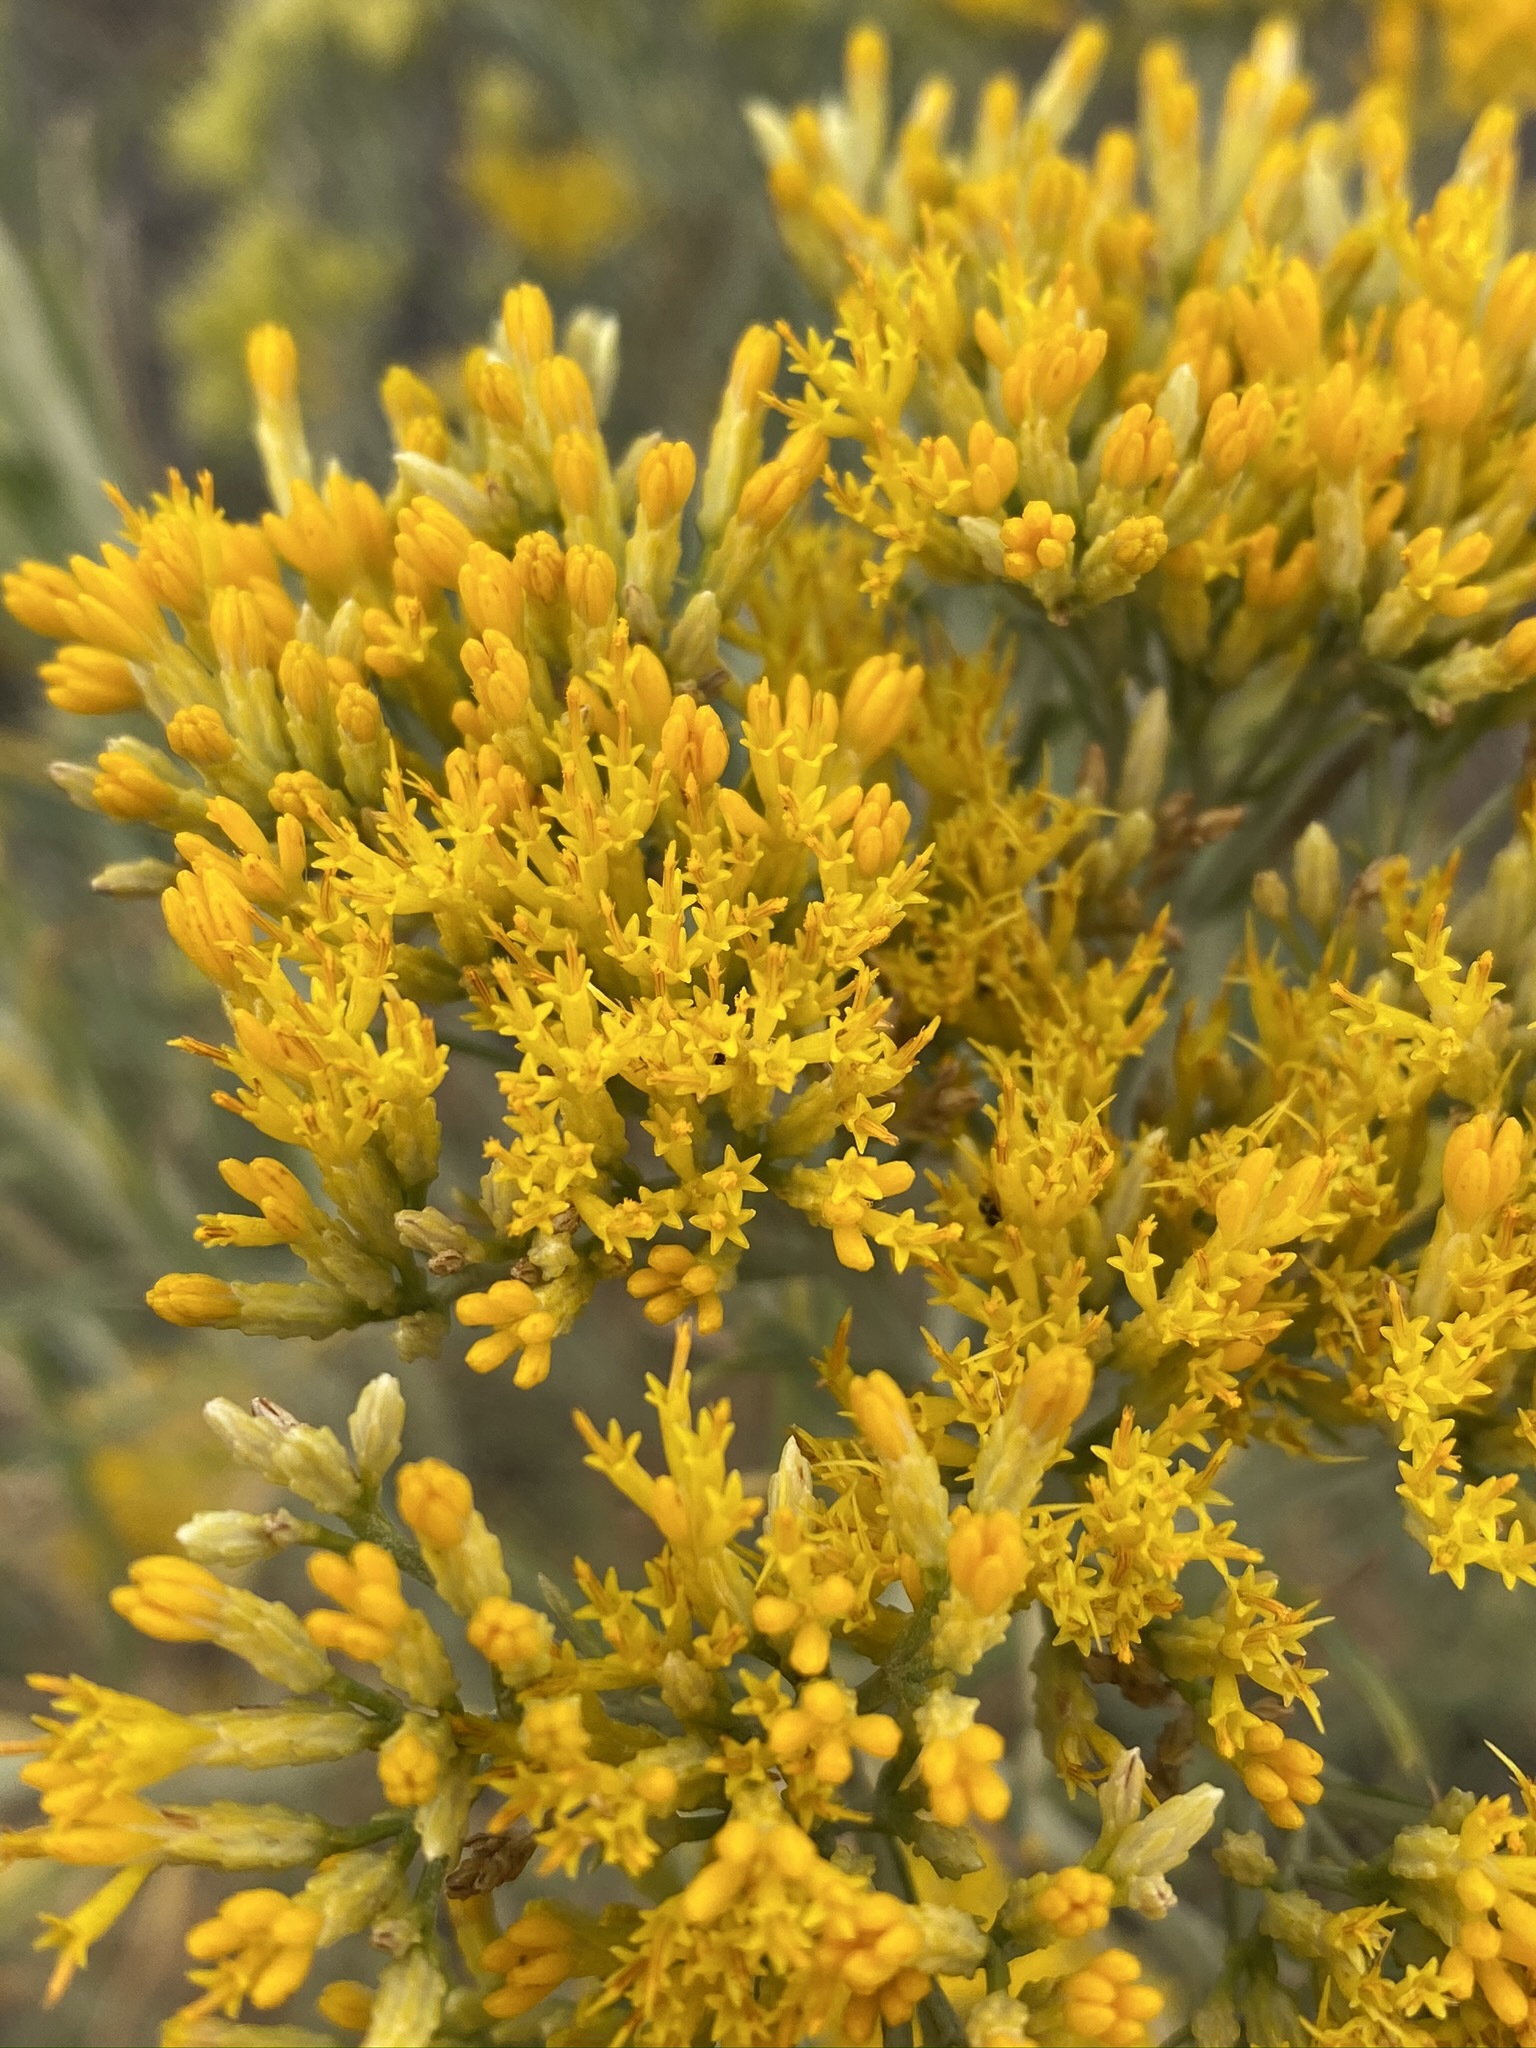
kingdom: Plantae
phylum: Tracheophyta
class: Magnoliopsida
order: Asterales
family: Asteraceae
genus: Ericameria
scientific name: Ericameria nauseosa
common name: Rubber rabbitbrush
